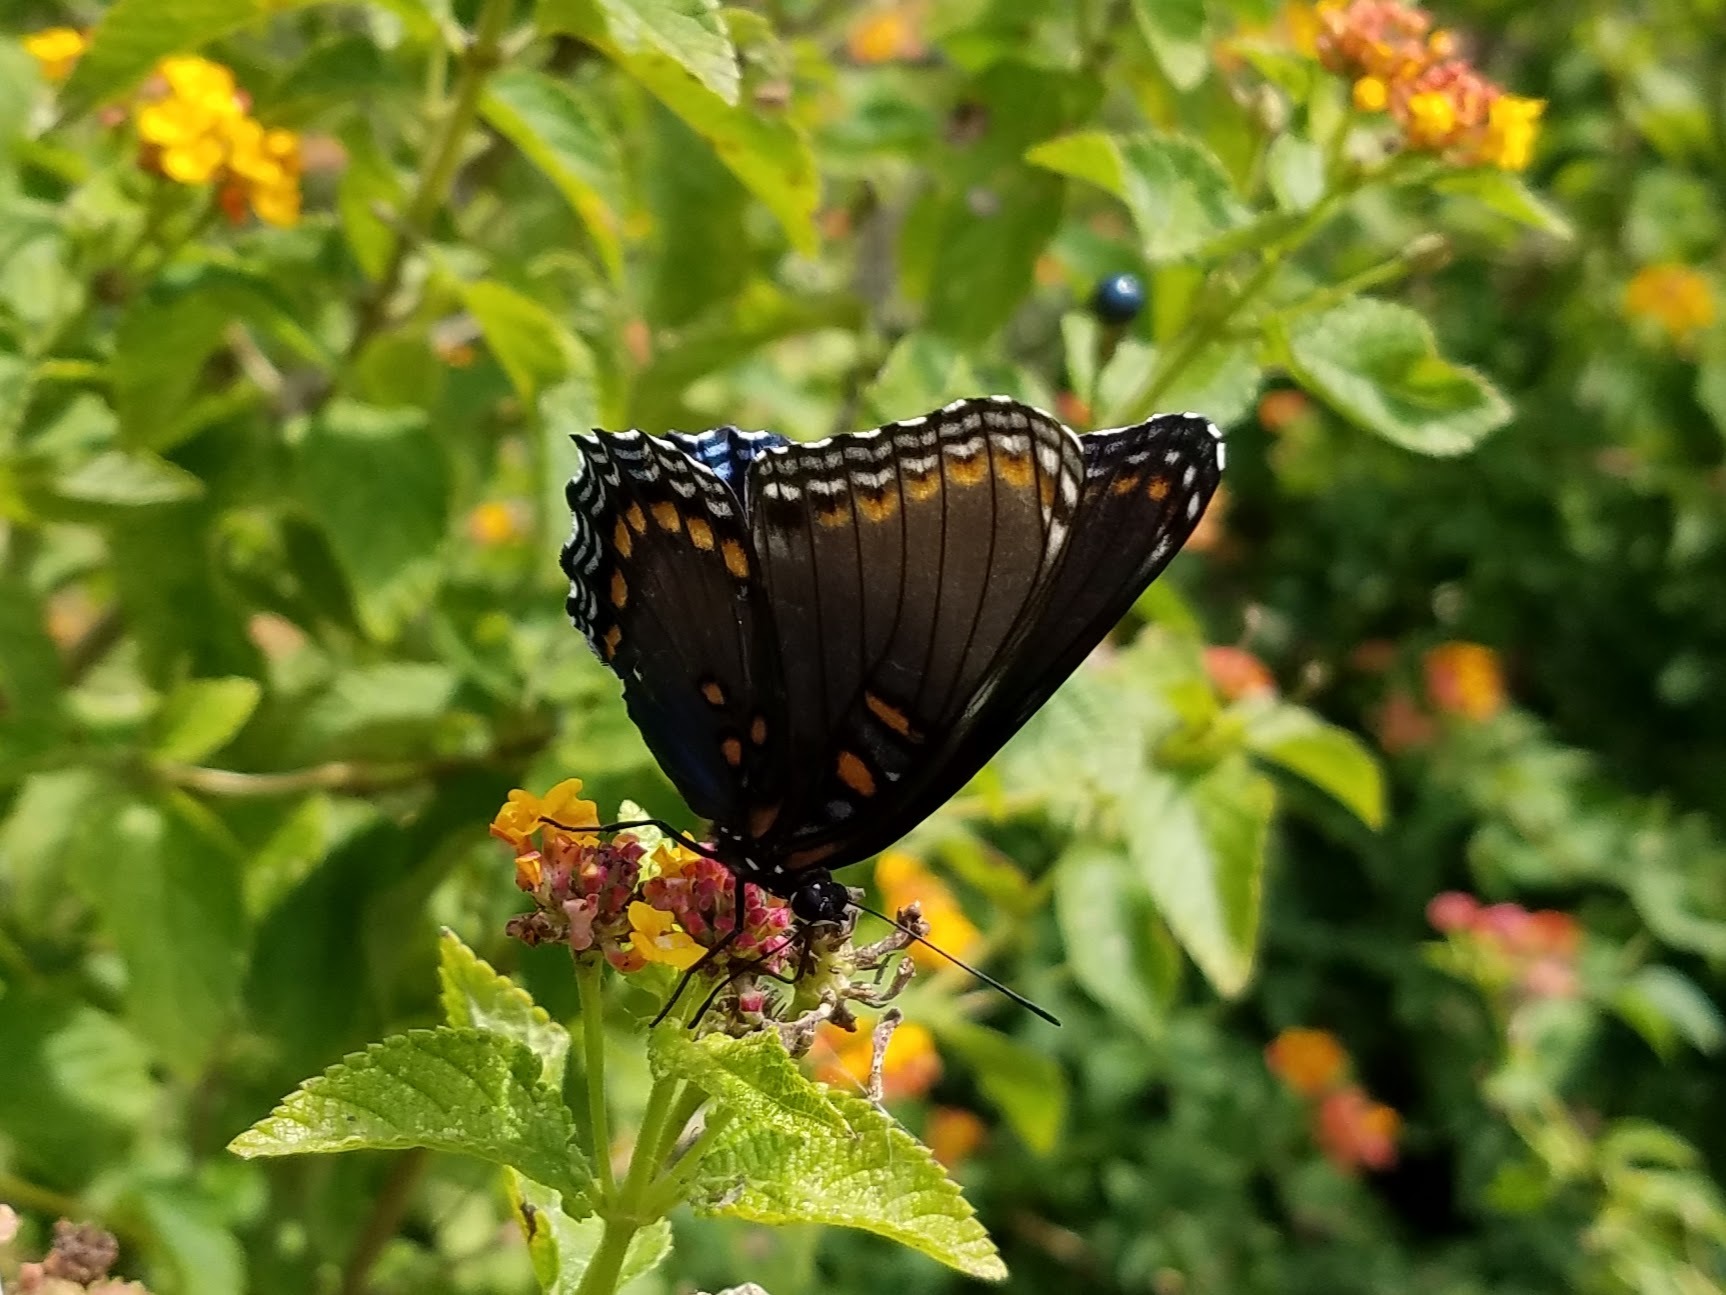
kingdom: Animalia
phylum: Arthropoda
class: Insecta
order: Lepidoptera
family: Nymphalidae
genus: Limenitis
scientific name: Limenitis astyanax
